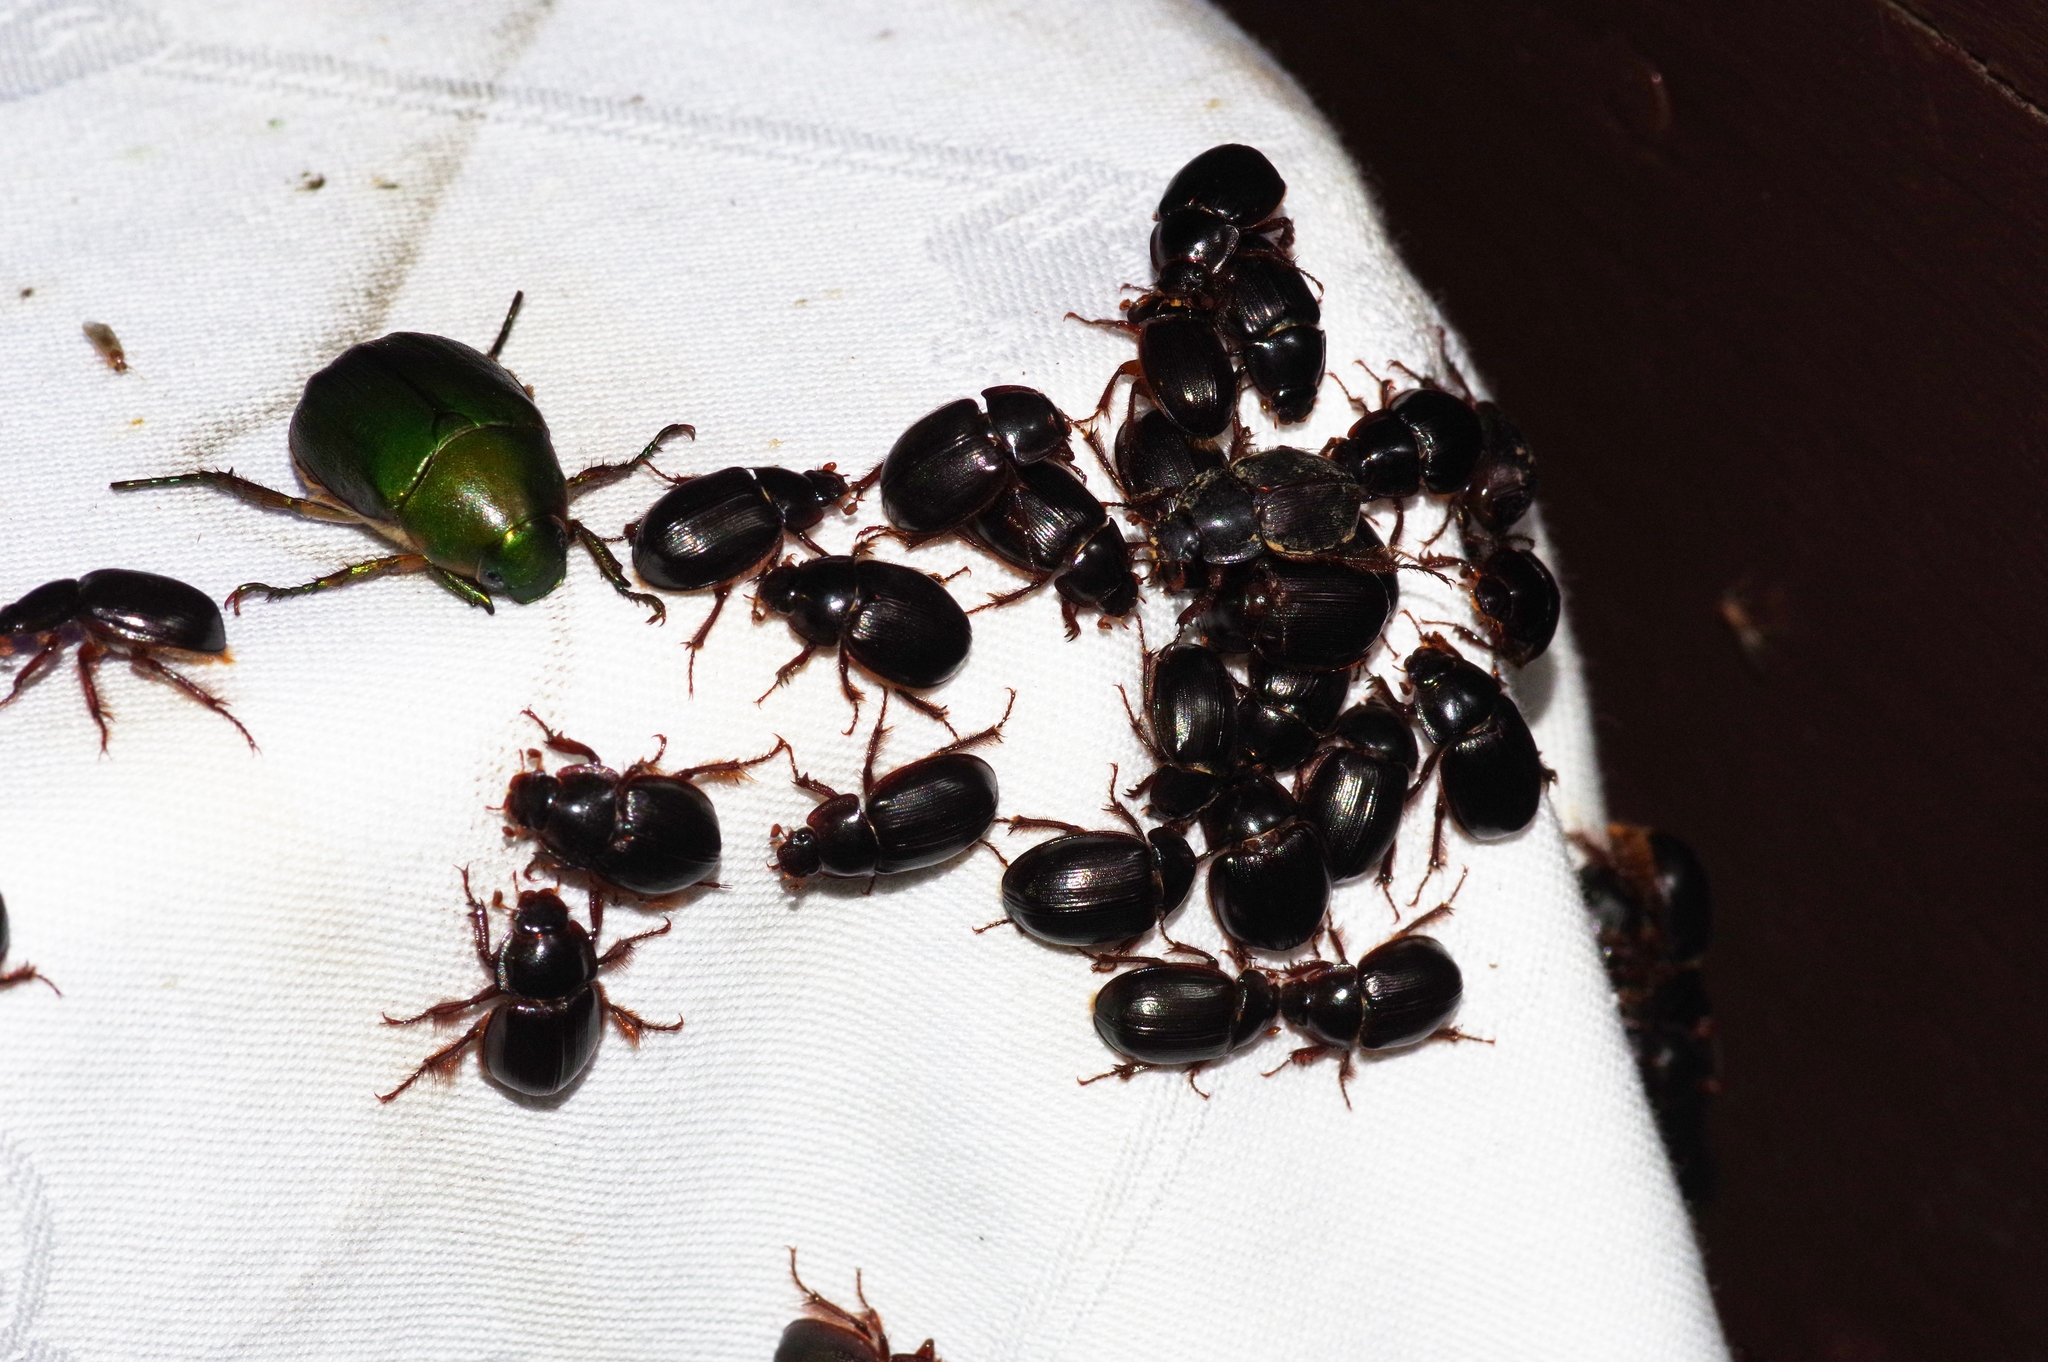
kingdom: Animalia
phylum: Arthropoda
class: Insecta
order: Coleoptera
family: Hybosoridae
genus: Phaeochrous
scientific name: Phaeochrous emarginatus
